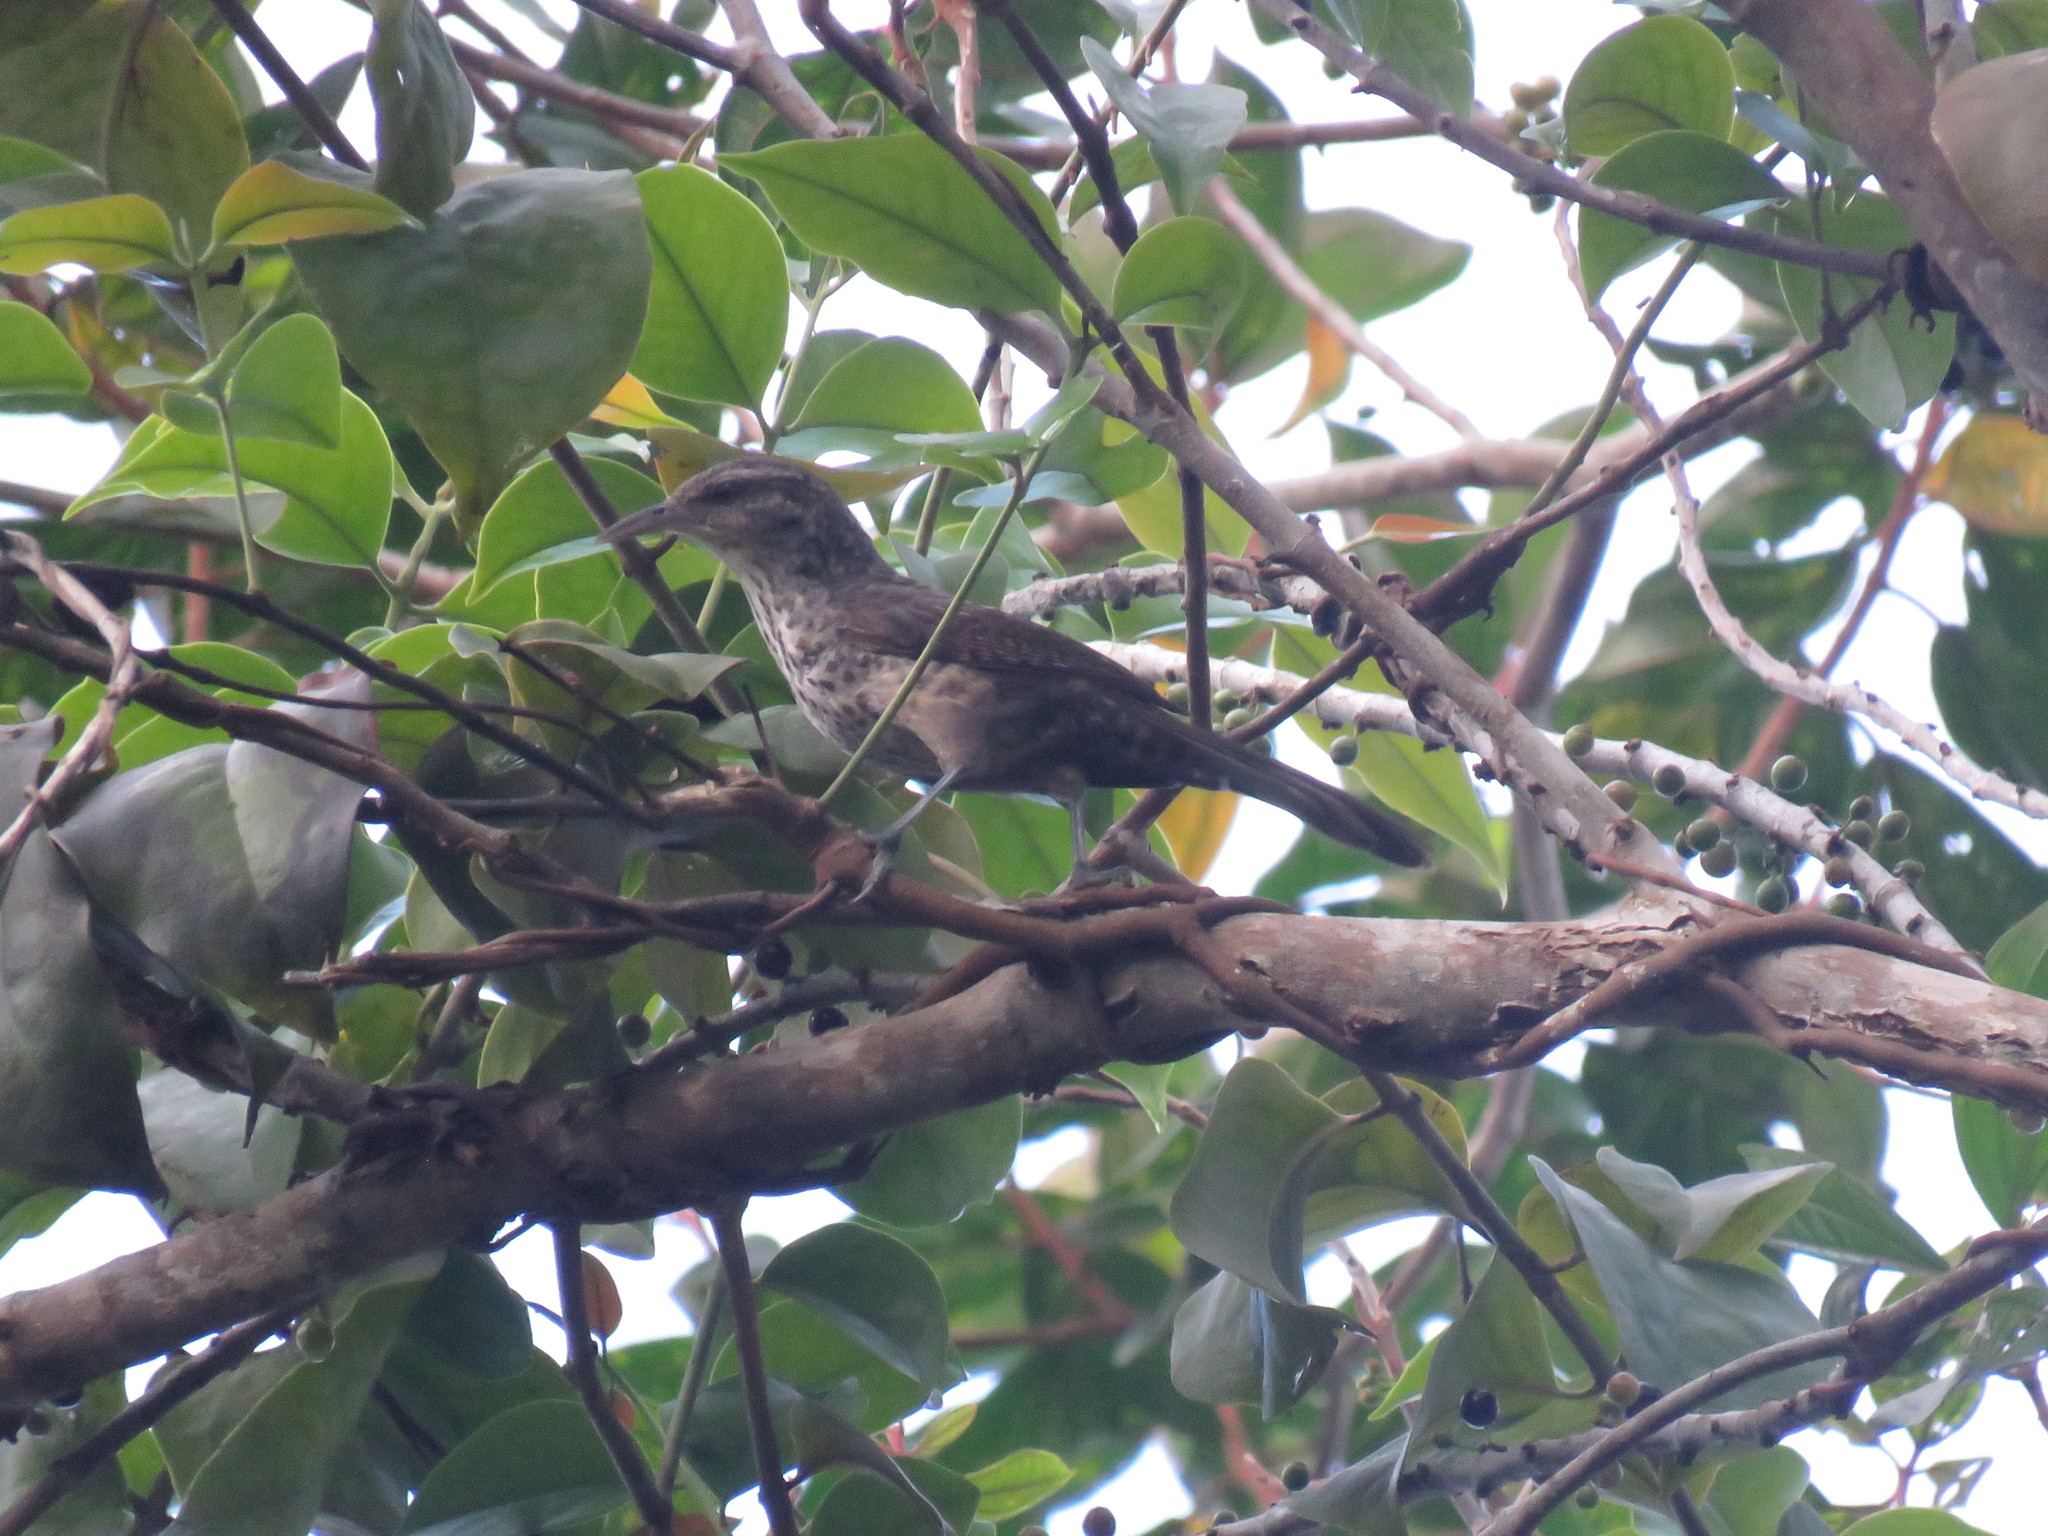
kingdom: Animalia
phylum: Chordata
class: Aves
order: Passeriformes
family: Troglodytidae
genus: Campylorhynchus
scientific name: Campylorhynchus turdinus
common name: Thrush-like wren
